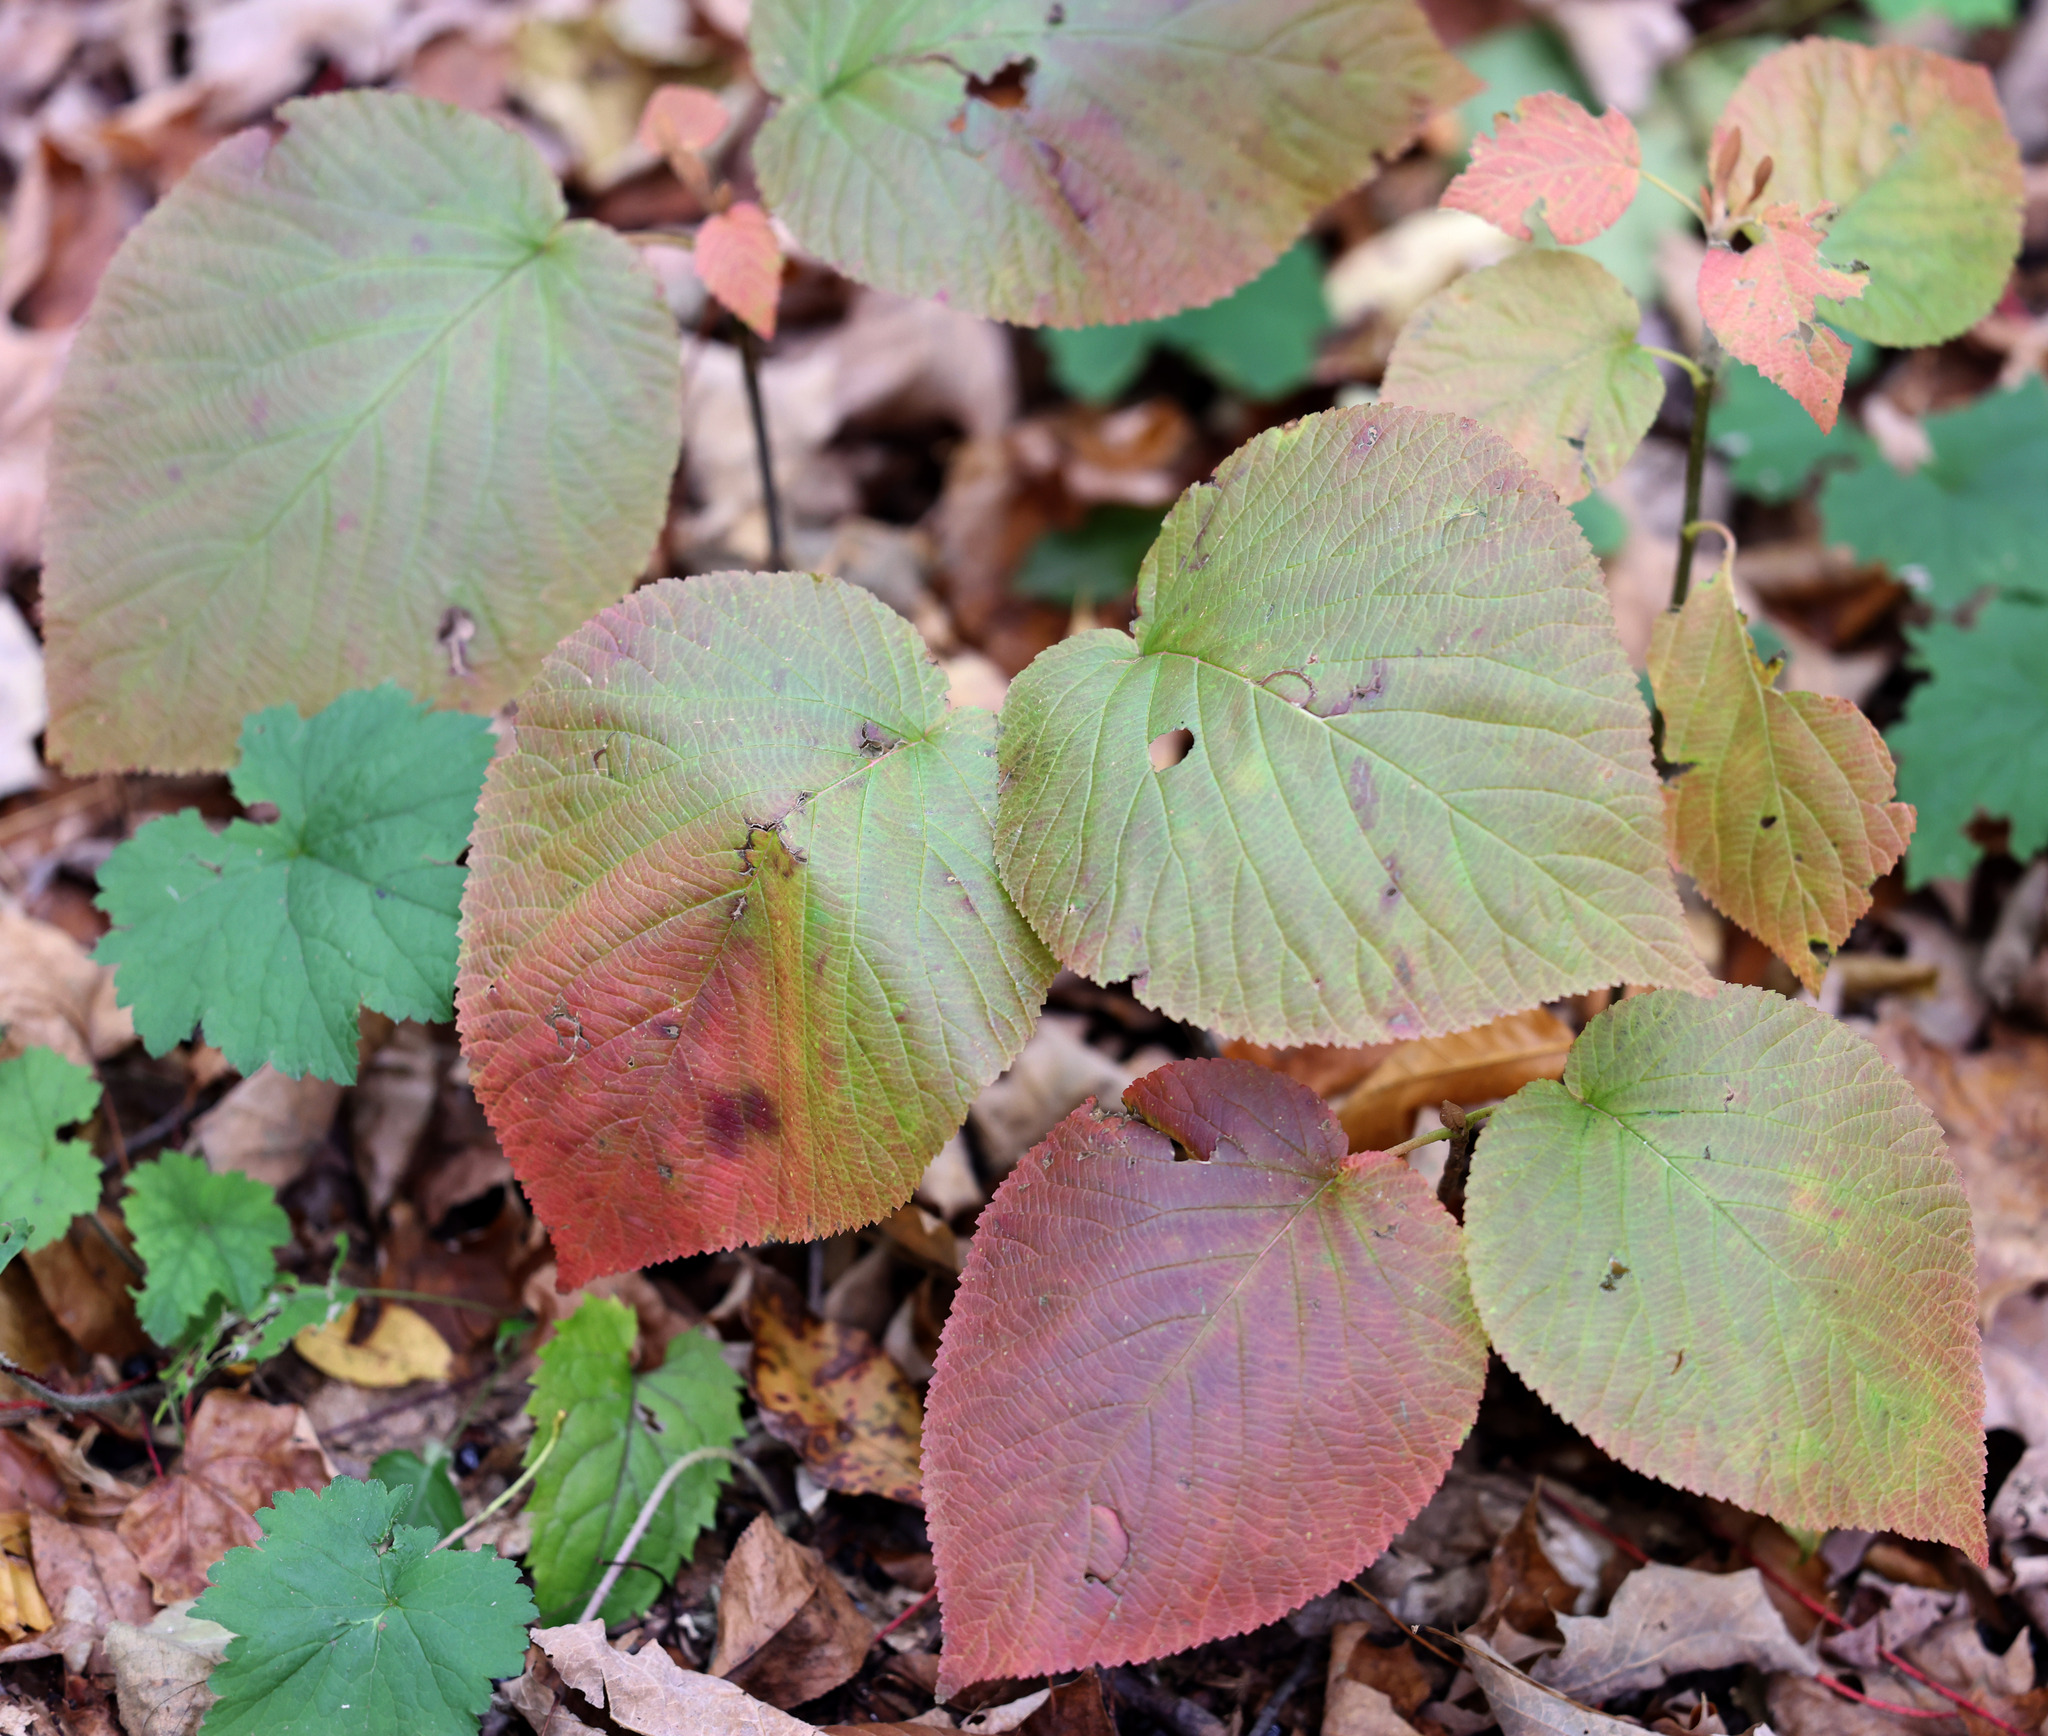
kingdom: Plantae
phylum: Tracheophyta
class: Magnoliopsida
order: Dipsacales
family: Viburnaceae
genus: Viburnum
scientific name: Viburnum lantanoides
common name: Hobblebush
